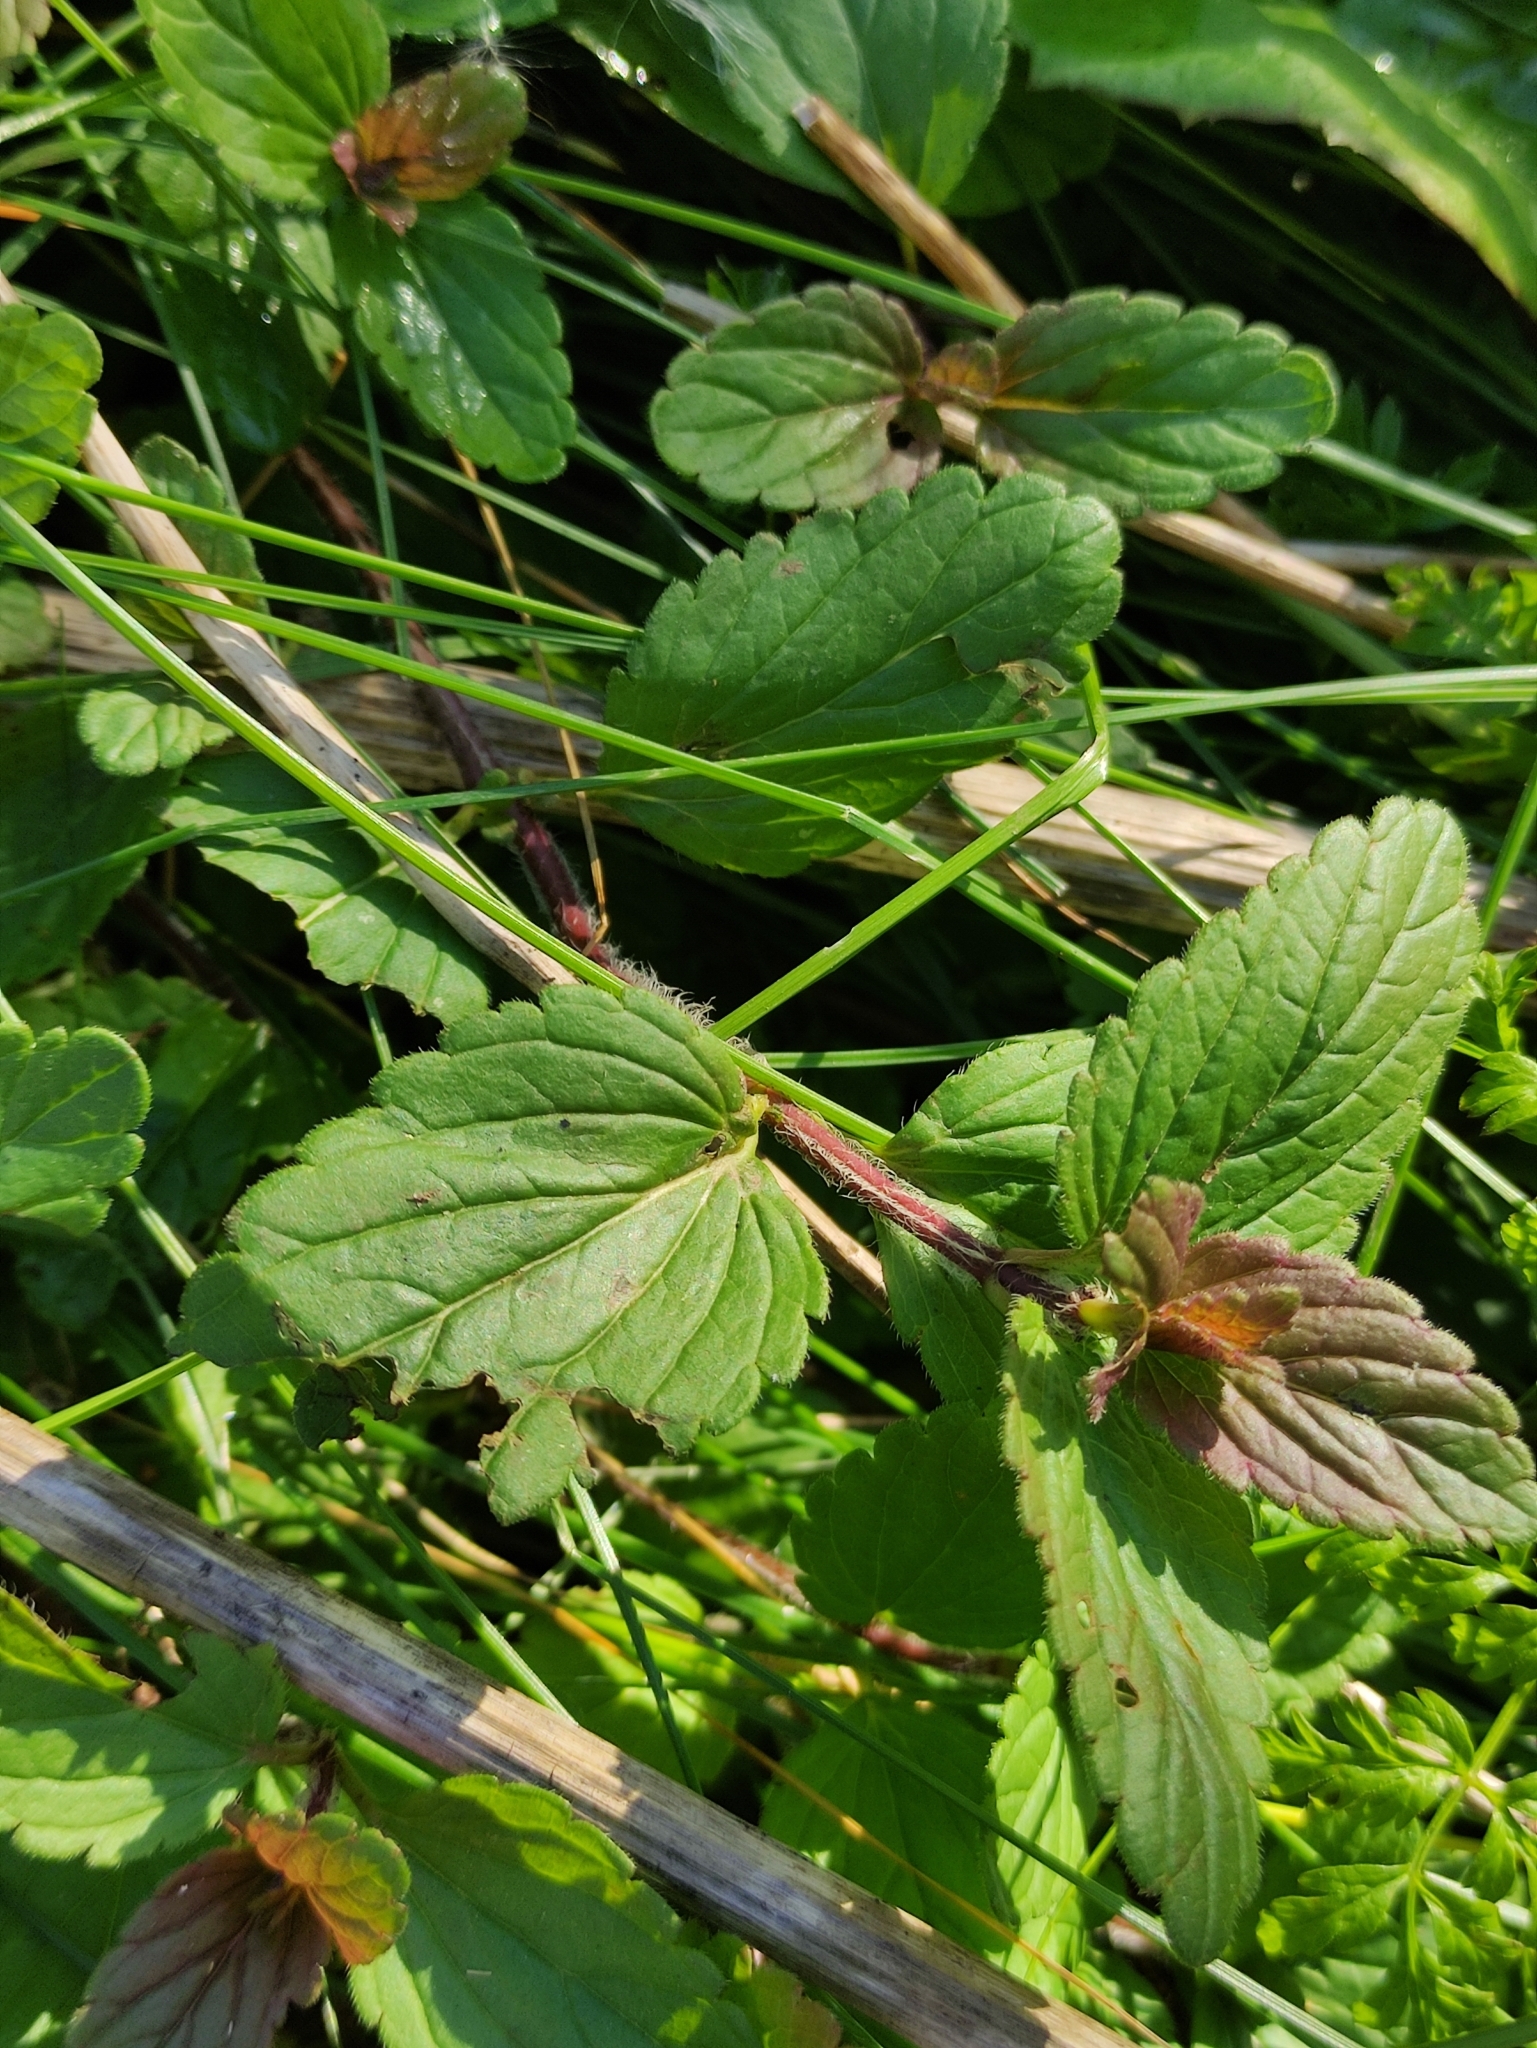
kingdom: Plantae
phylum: Tracheophyta
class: Magnoliopsida
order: Lamiales
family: Plantaginaceae
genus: Veronica
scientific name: Veronica chamaedrys
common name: Germander speedwell
